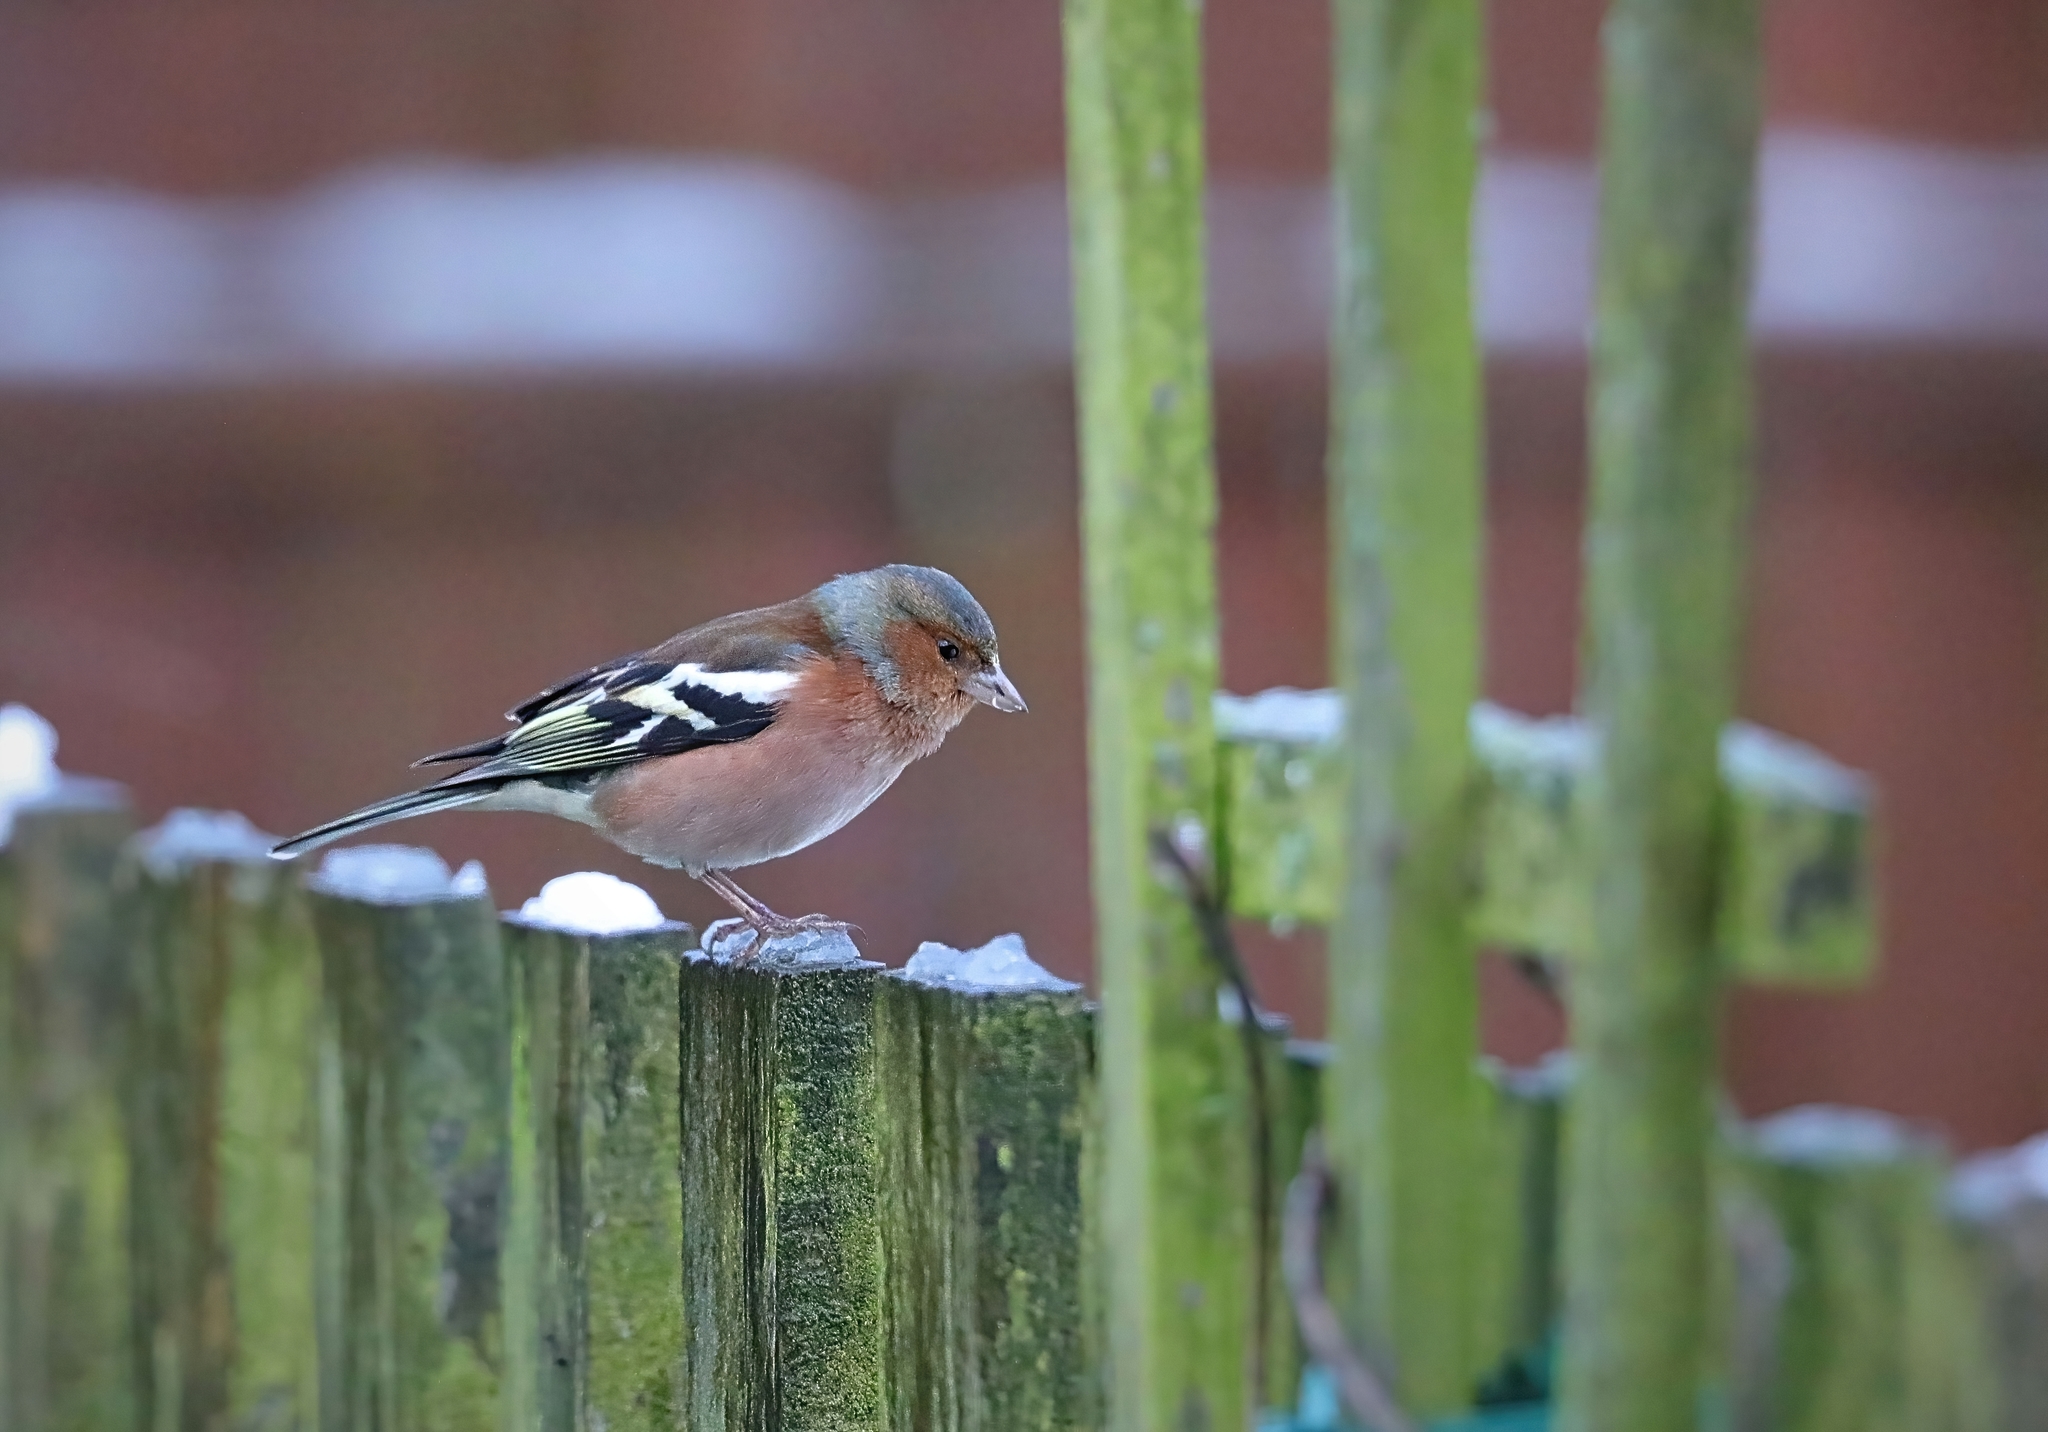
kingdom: Animalia
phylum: Chordata
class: Aves
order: Passeriformes
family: Fringillidae
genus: Fringilla
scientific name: Fringilla coelebs
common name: Common chaffinch
